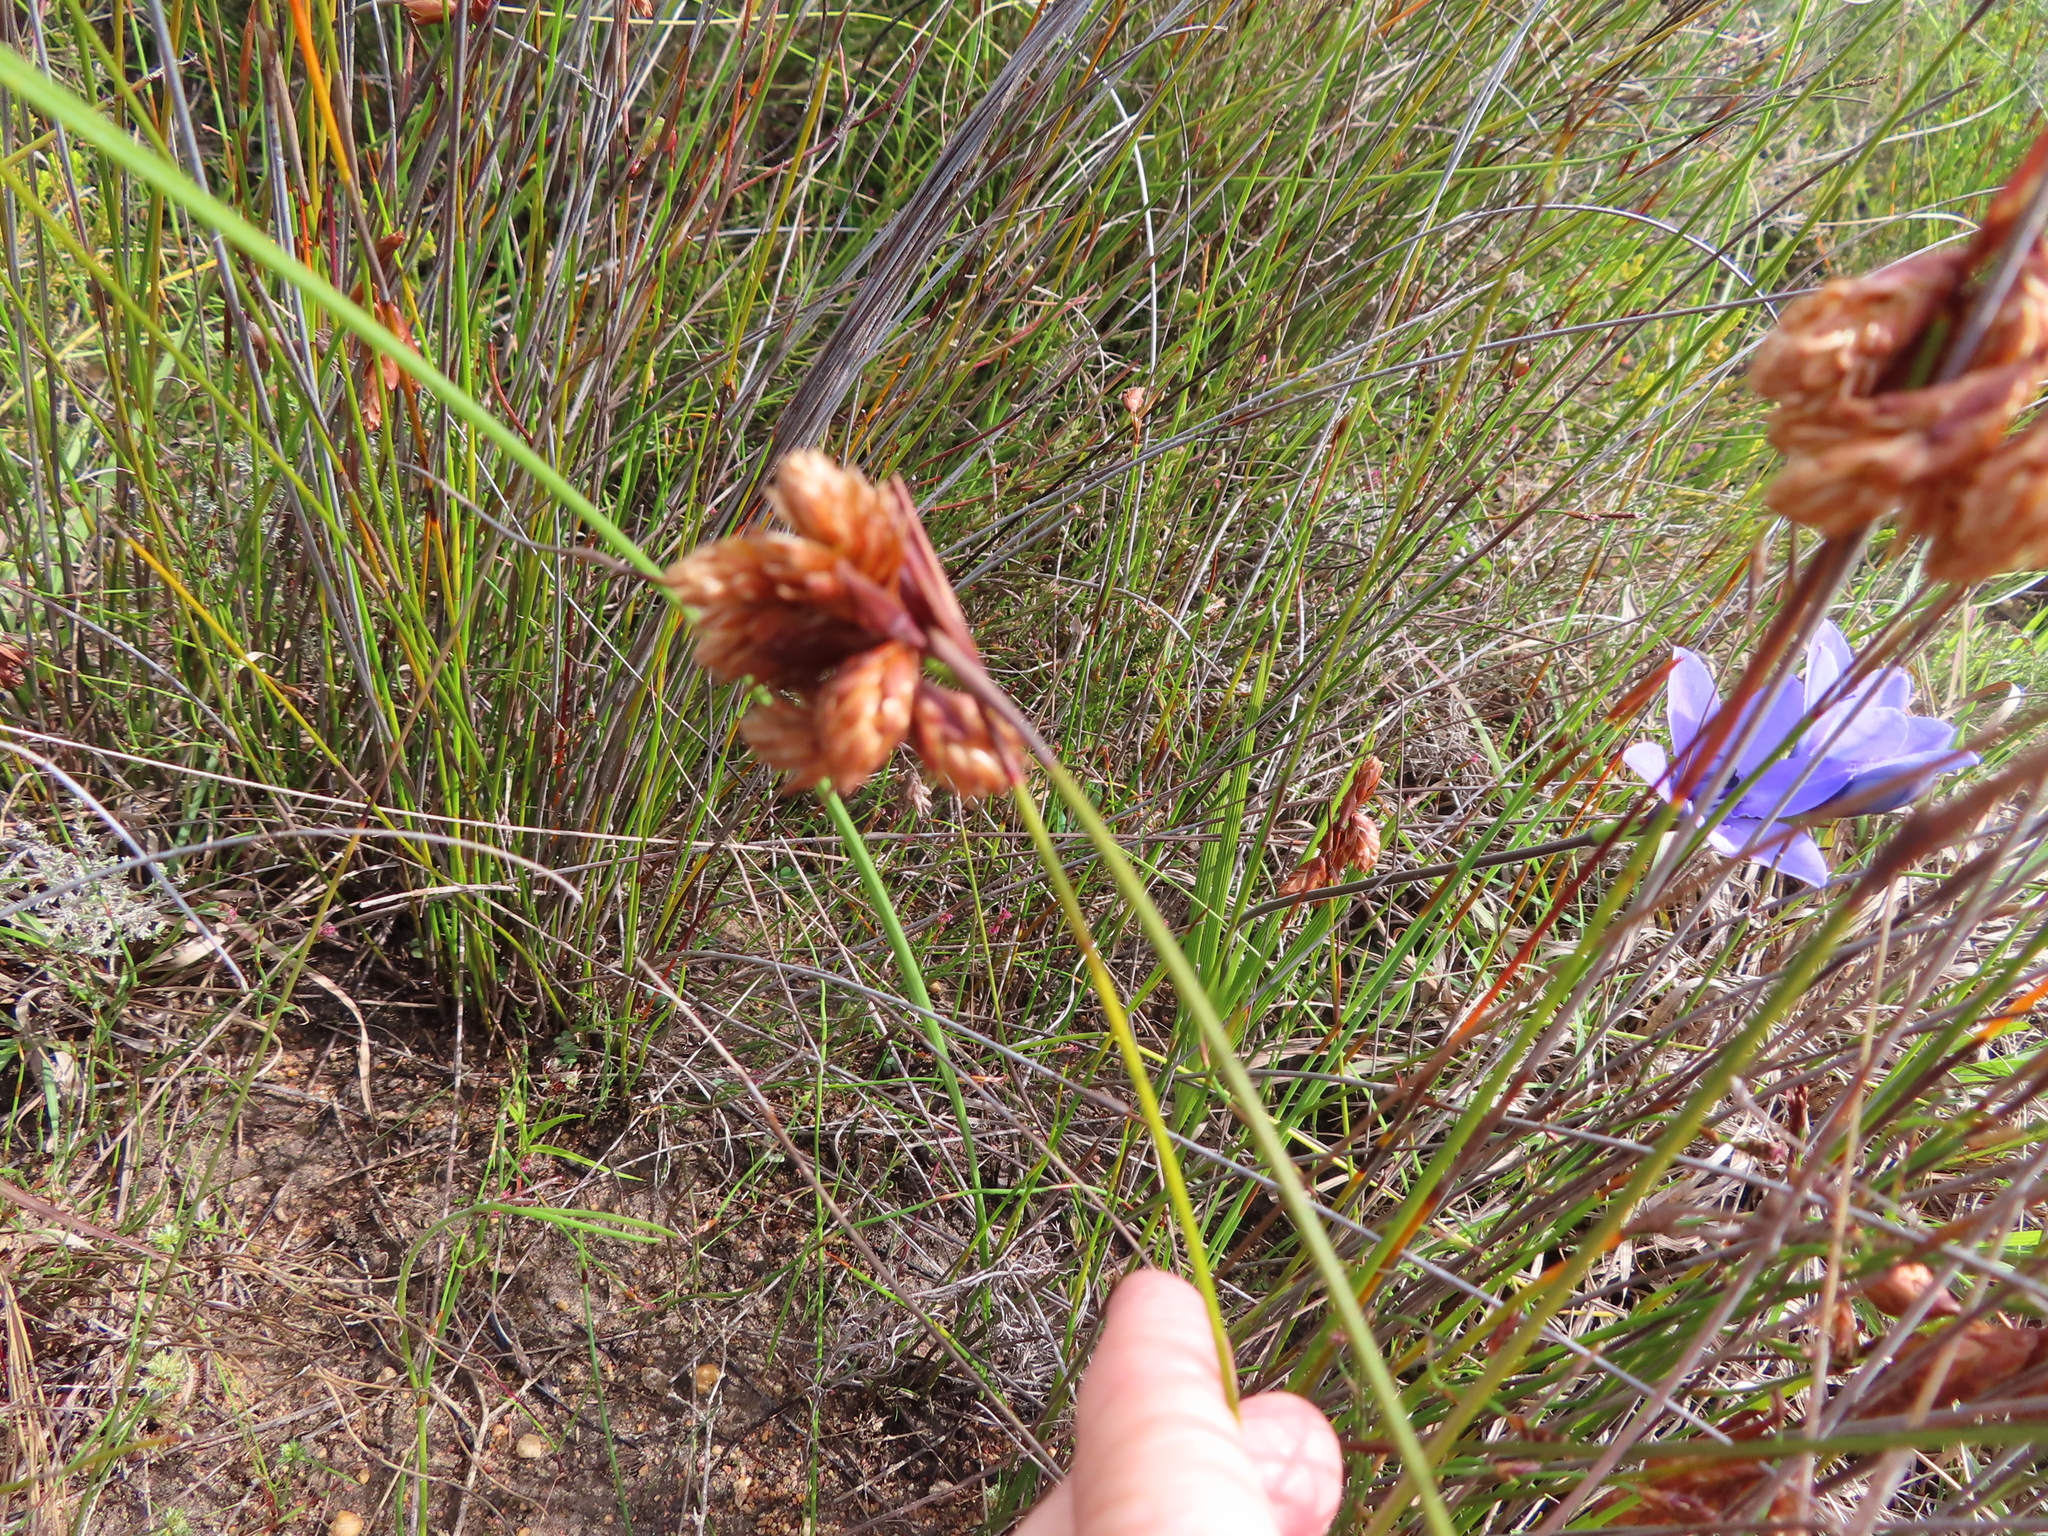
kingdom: Plantae
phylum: Tracheophyta
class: Liliopsida
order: Poales
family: Restionaceae
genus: Staberoha
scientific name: Staberoha cernua
